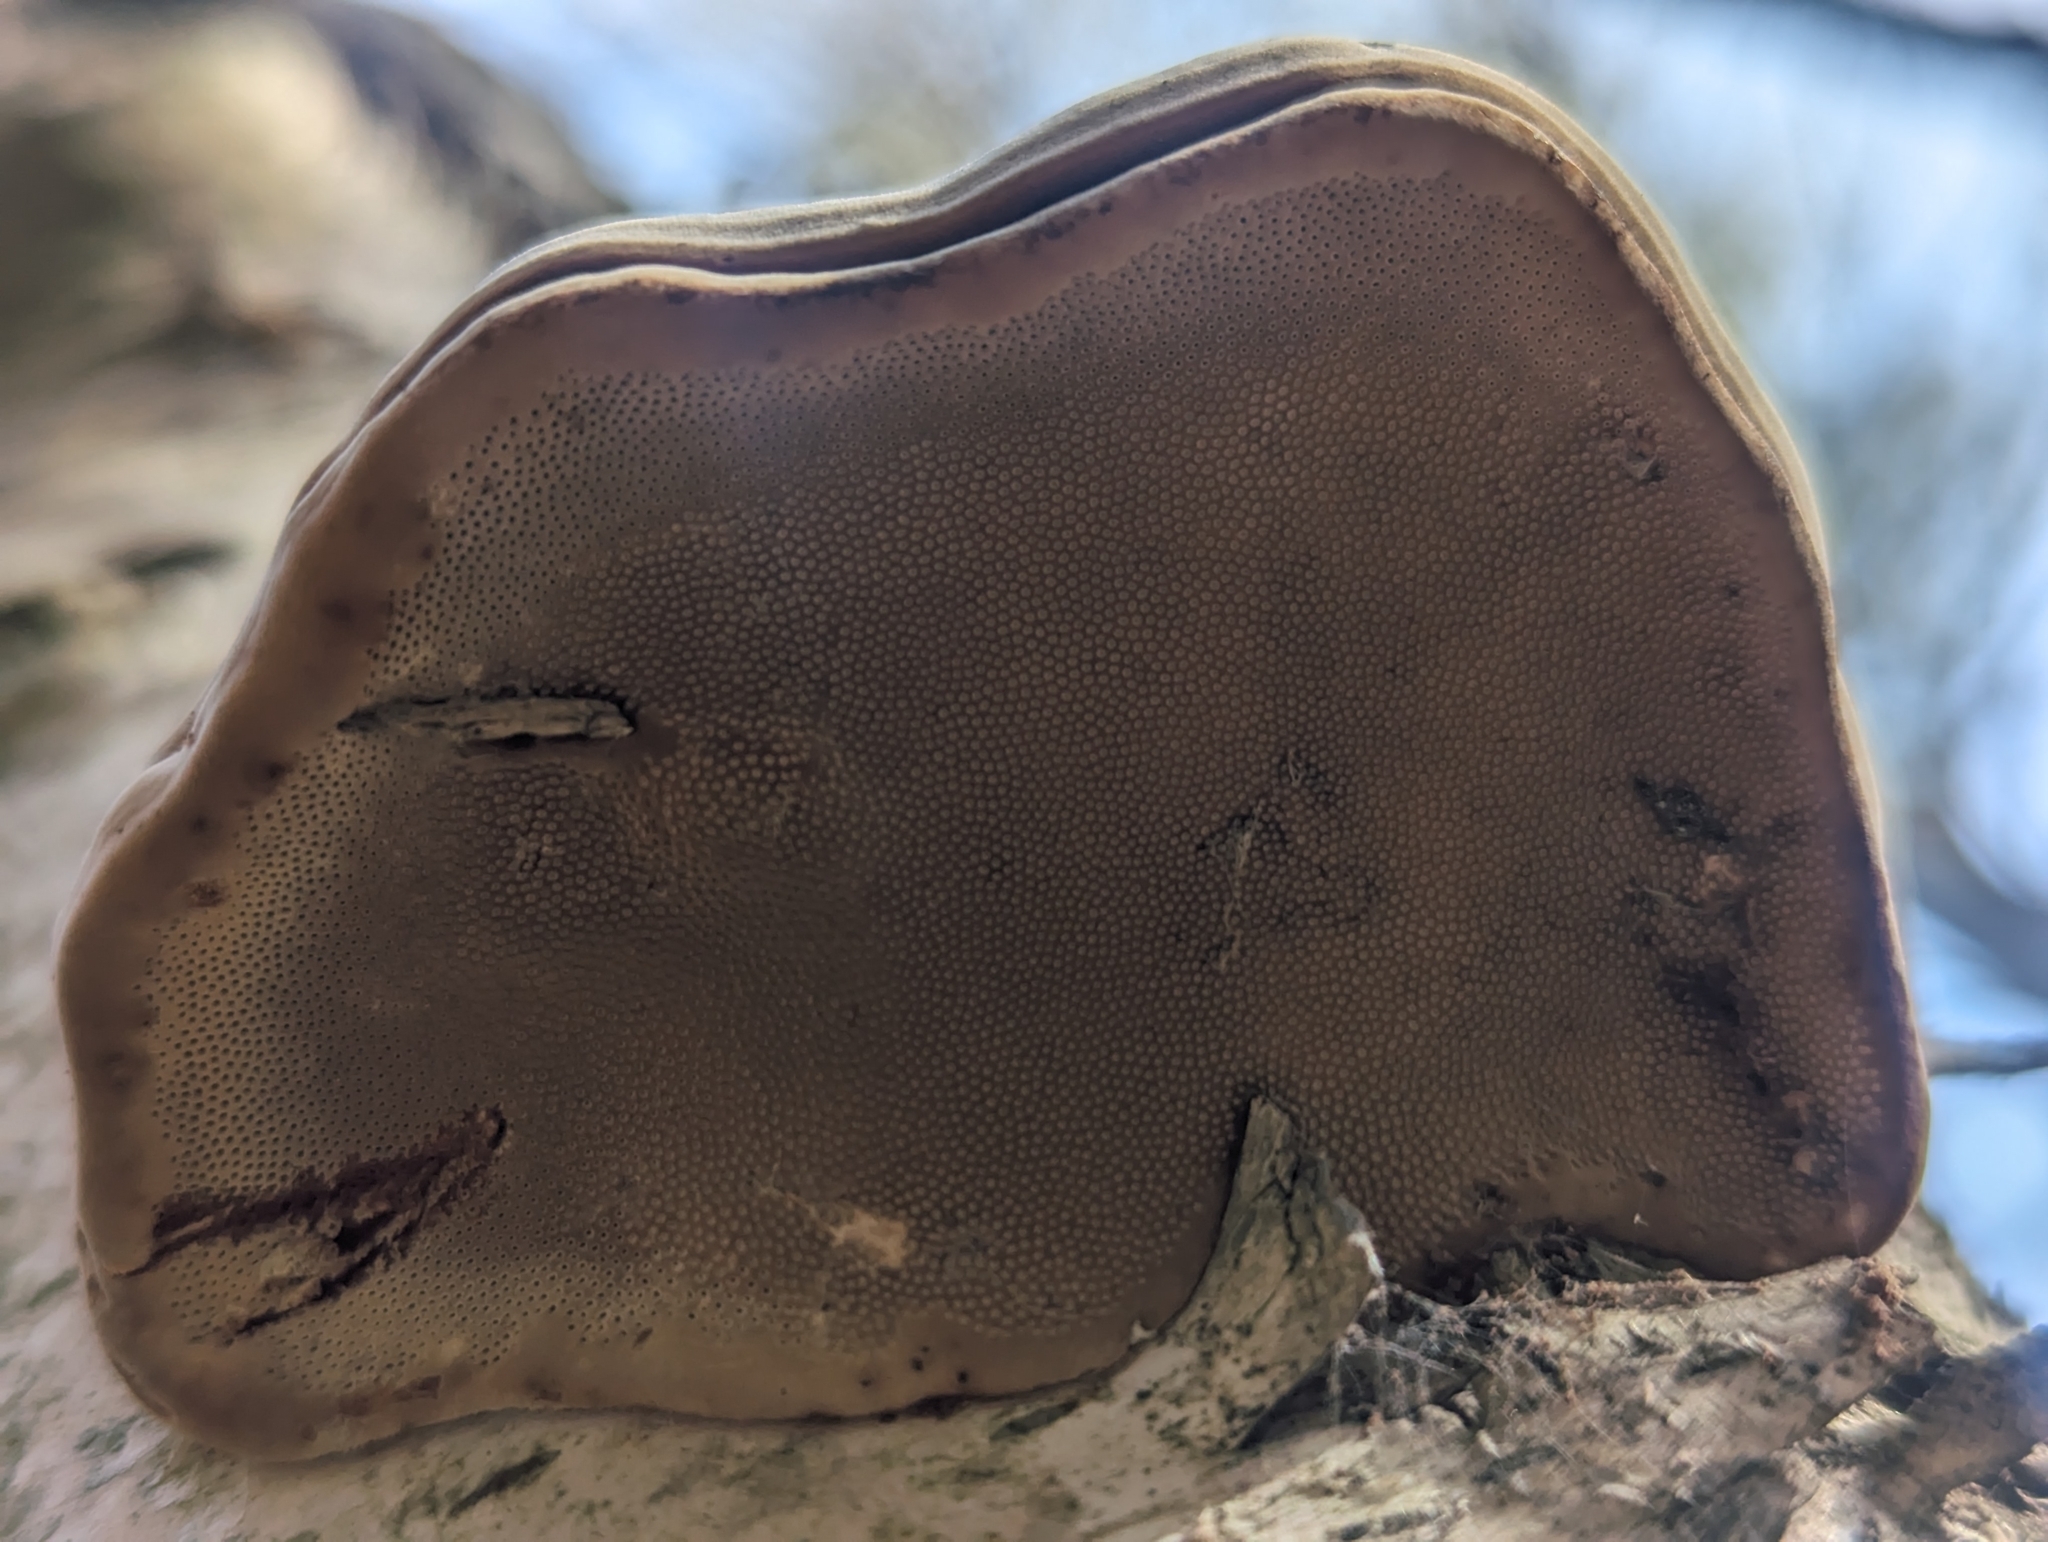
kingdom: Fungi
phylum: Basidiomycota
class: Agaricomycetes
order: Polyporales
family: Polyporaceae
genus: Fomes
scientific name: Fomes fomentarius
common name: Hoof fungus
